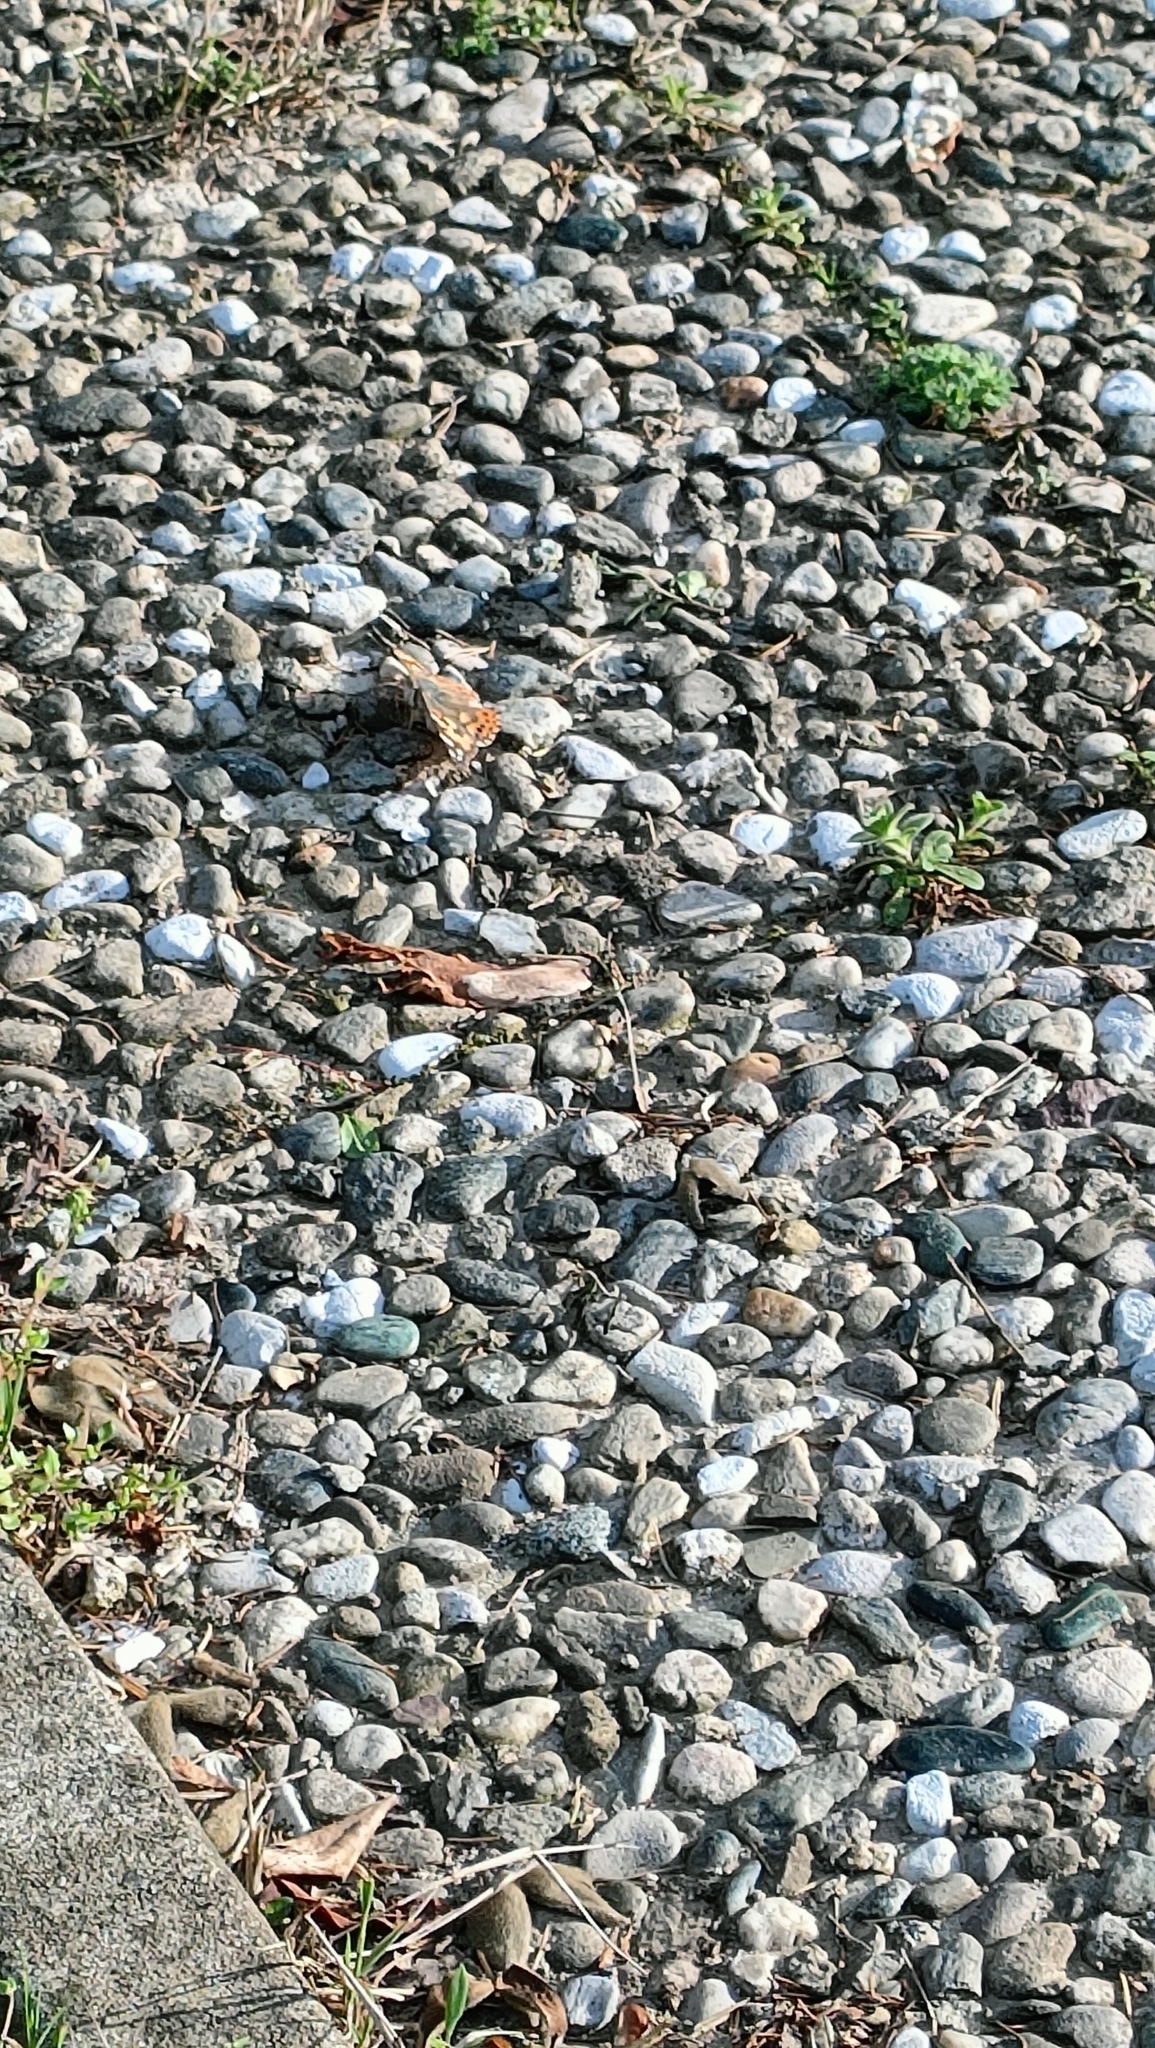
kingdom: Animalia
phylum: Arthropoda
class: Insecta
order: Lepidoptera
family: Nymphalidae
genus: Vanessa
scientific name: Vanessa cardui
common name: Painted lady
